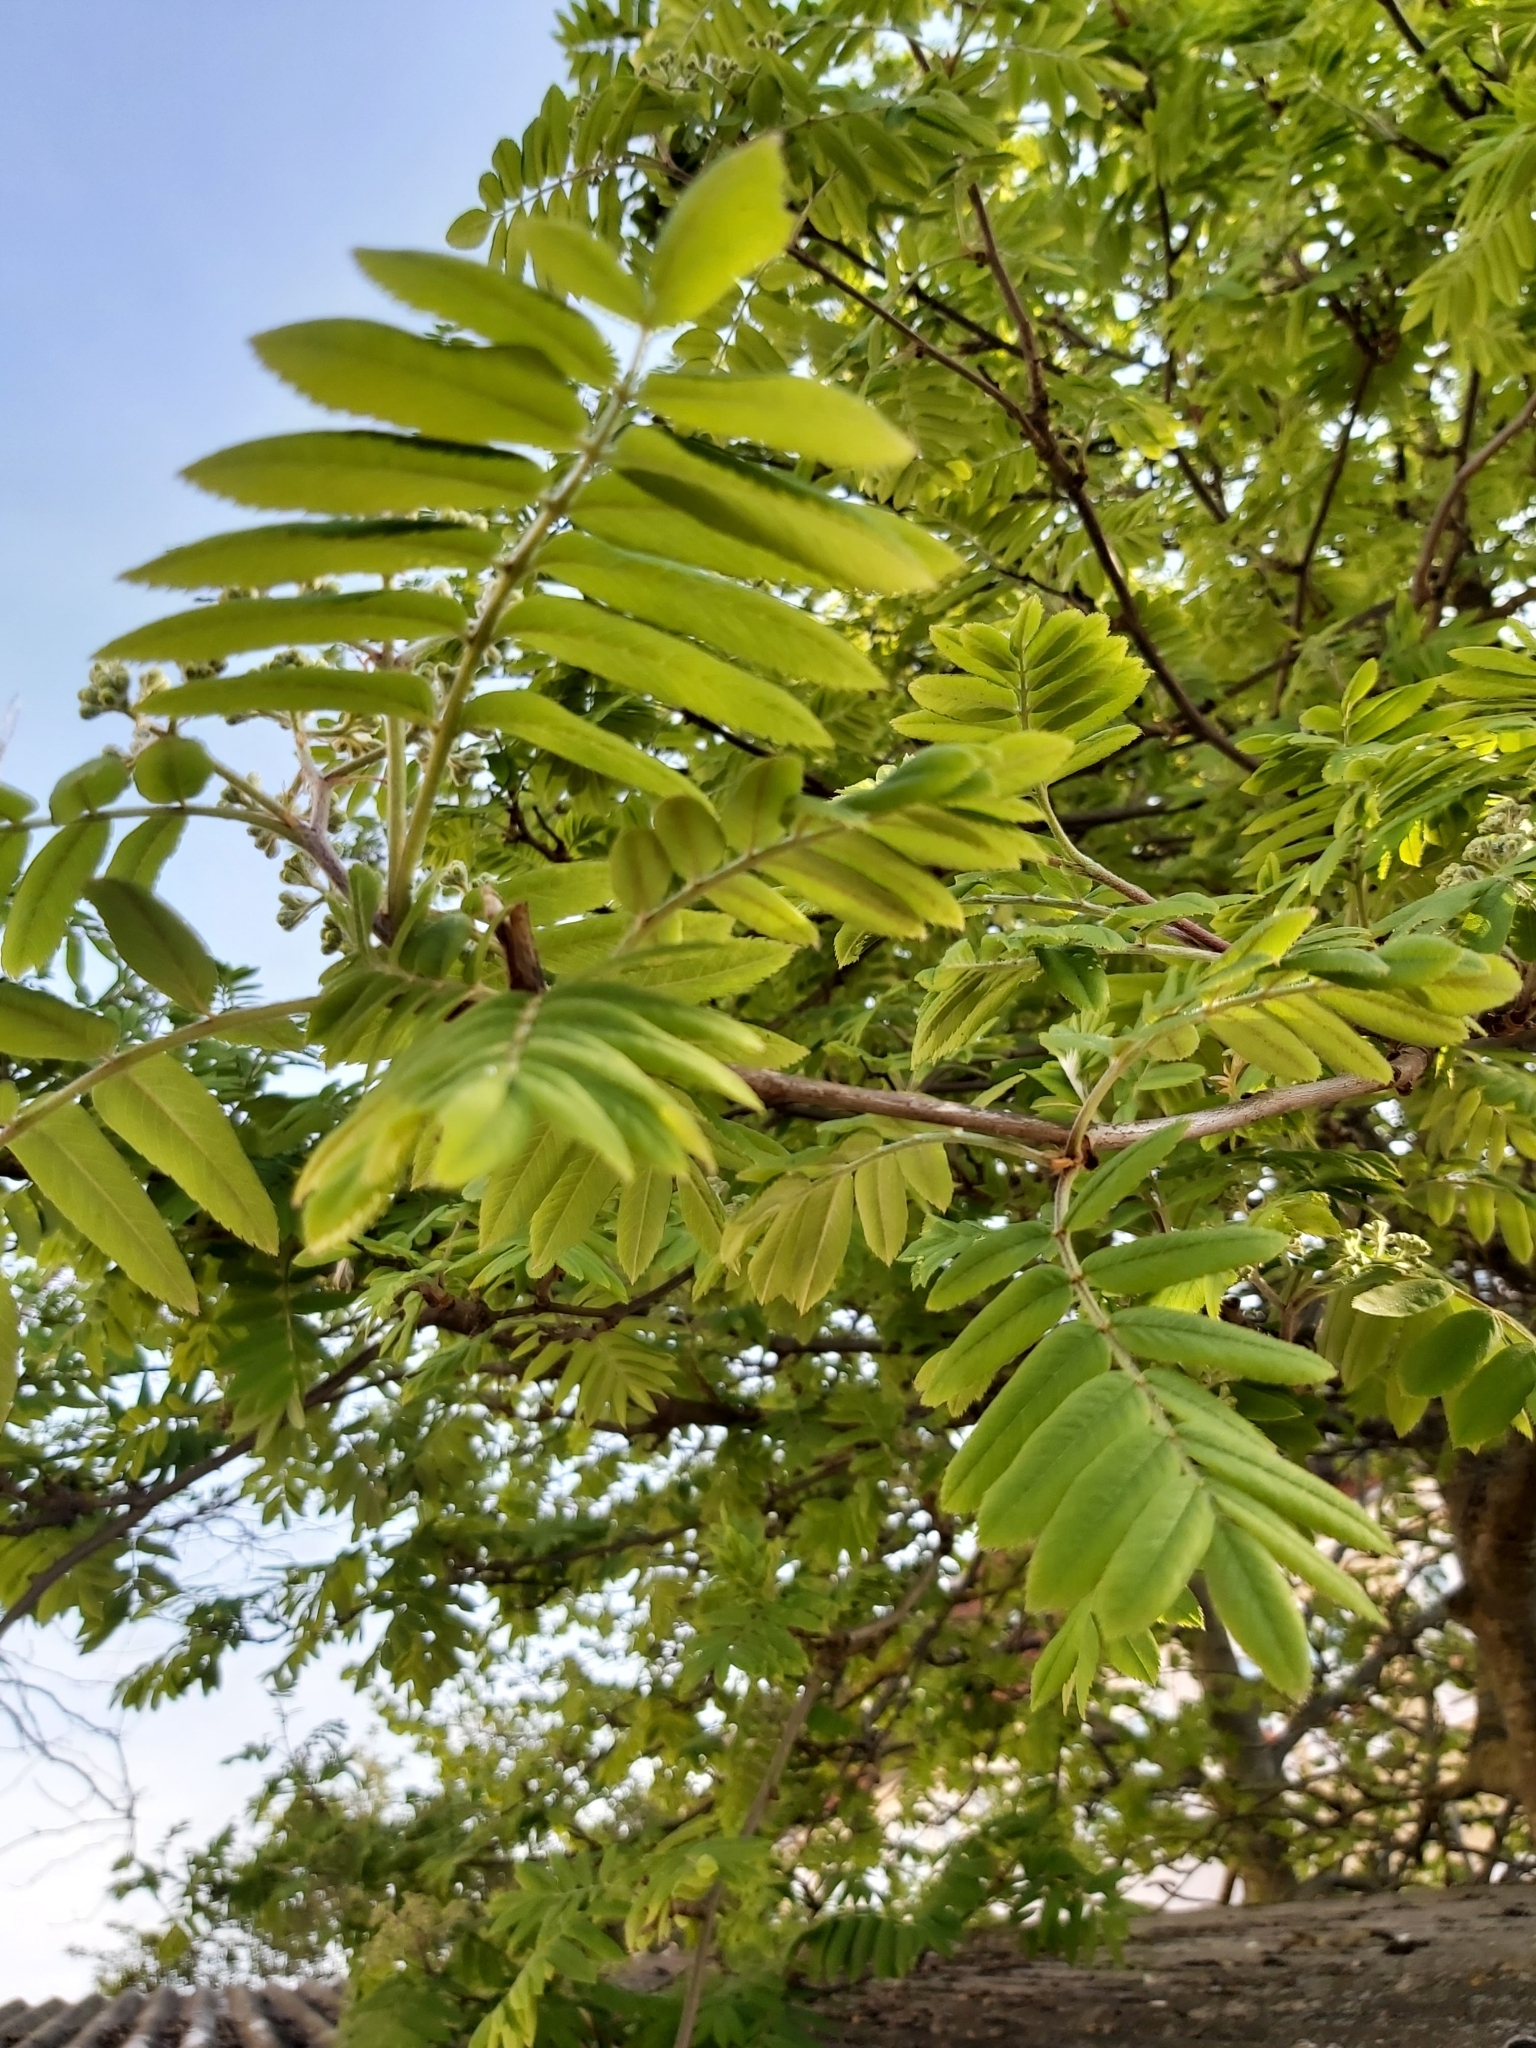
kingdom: Plantae
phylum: Tracheophyta
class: Magnoliopsida
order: Rosales
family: Rosaceae
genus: Sorbus
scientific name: Sorbus aucuparia
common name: Rowan
